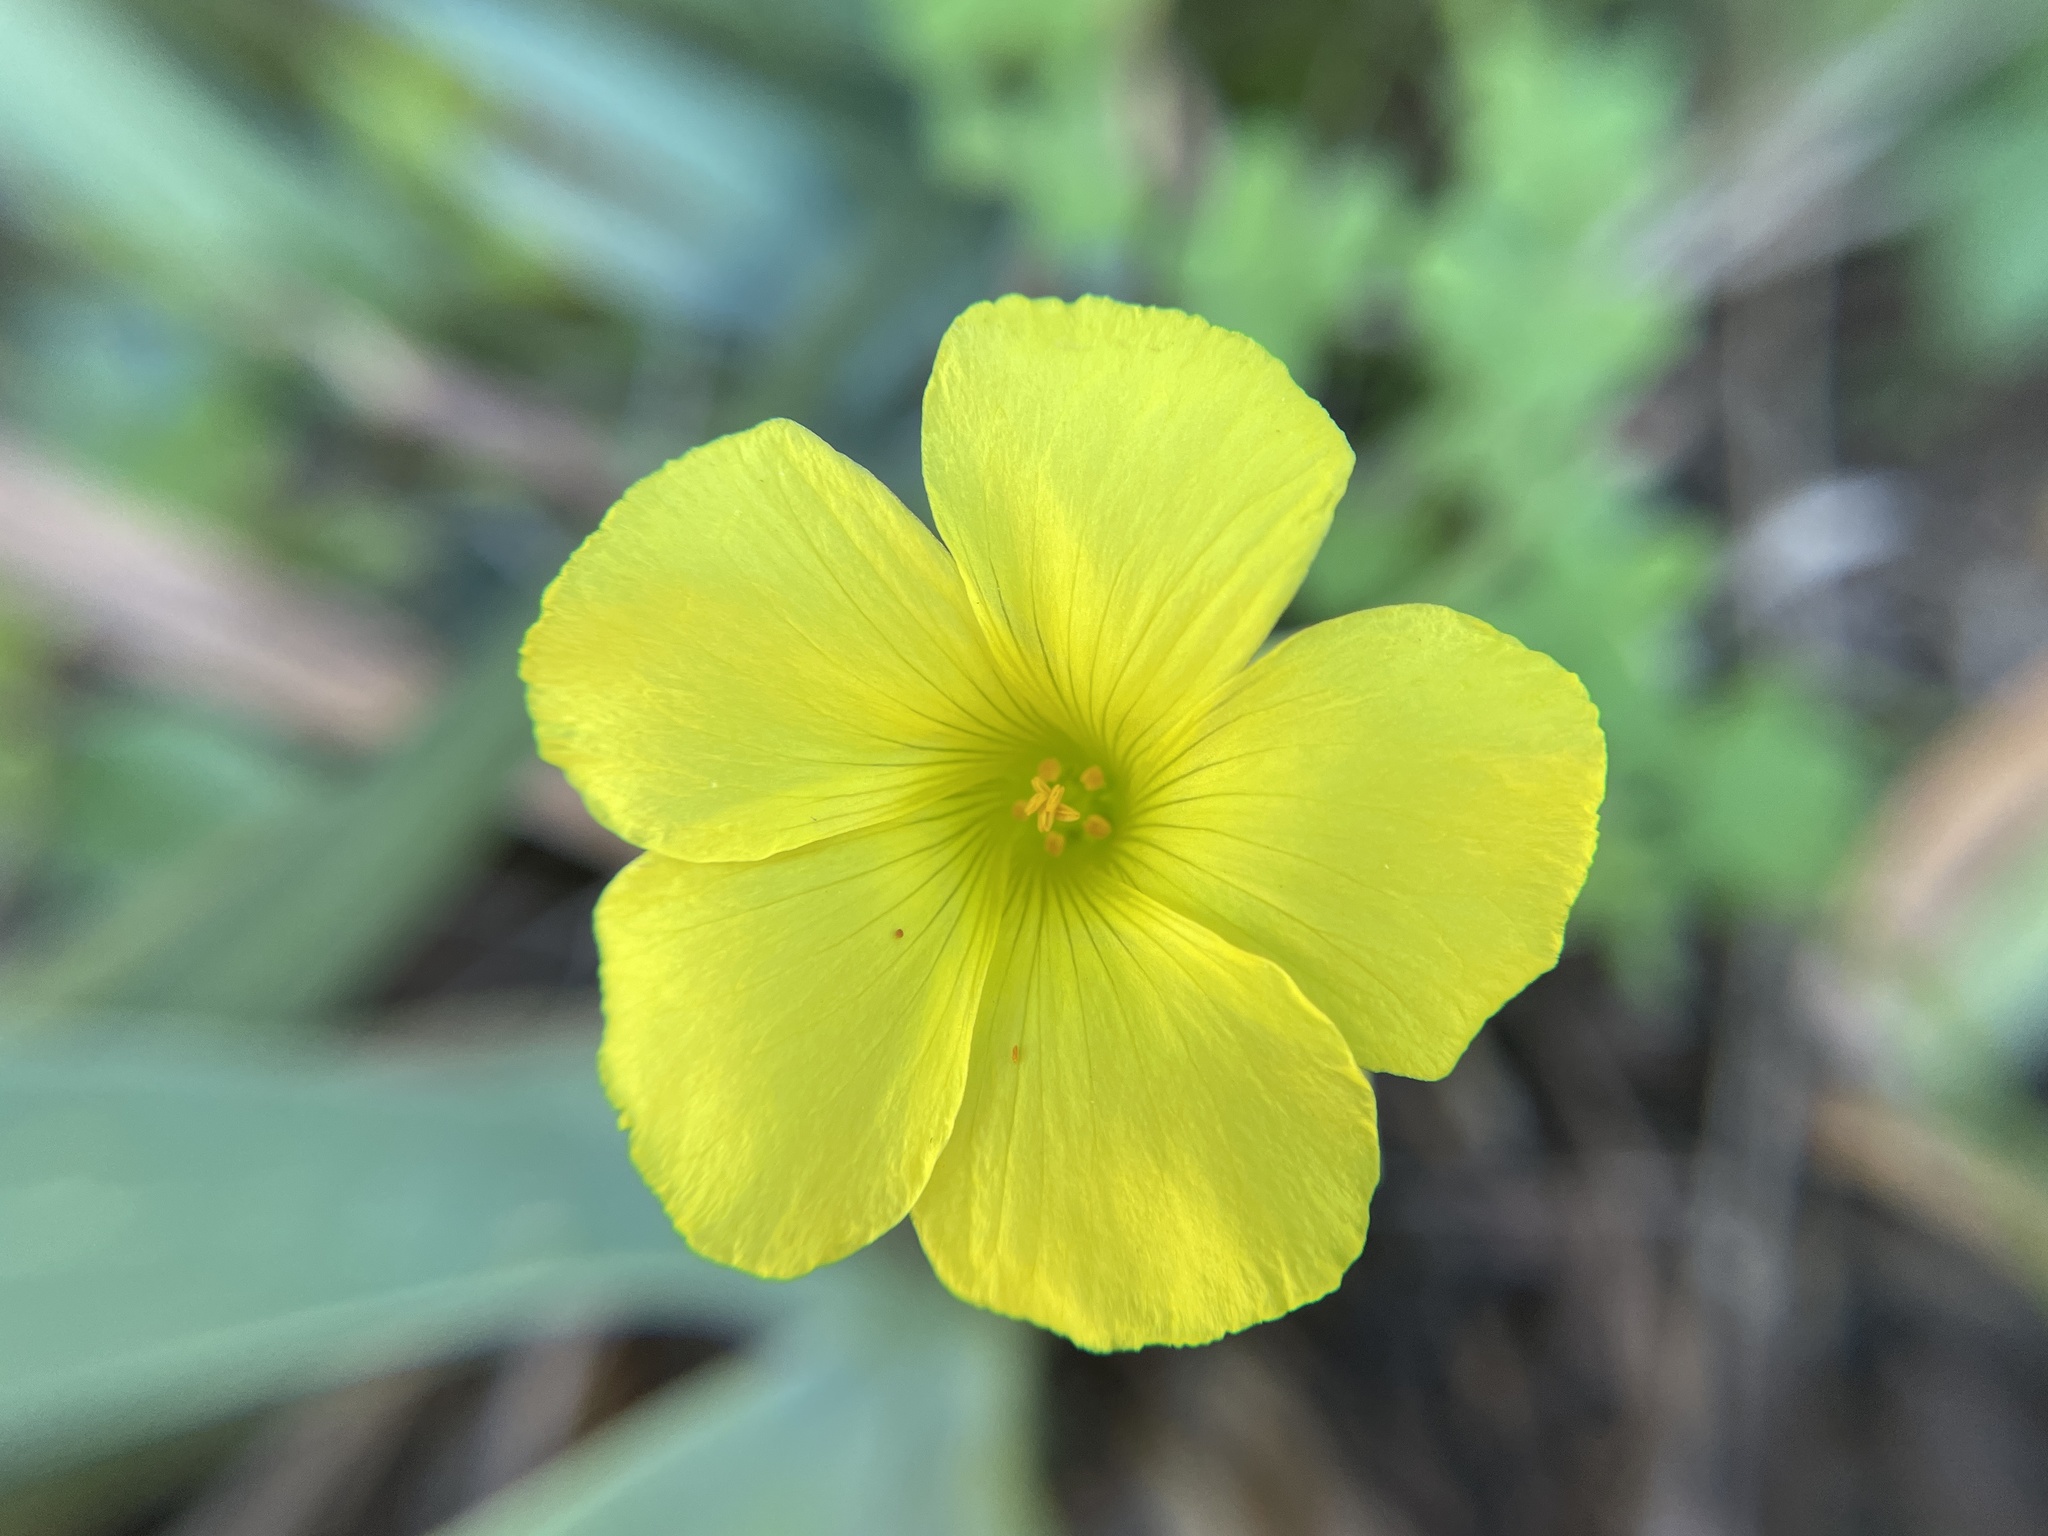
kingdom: Plantae
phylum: Tracheophyta
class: Magnoliopsida
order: Oxalidales
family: Oxalidaceae
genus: Oxalis
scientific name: Oxalis pes-caprae
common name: Bermuda-buttercup
